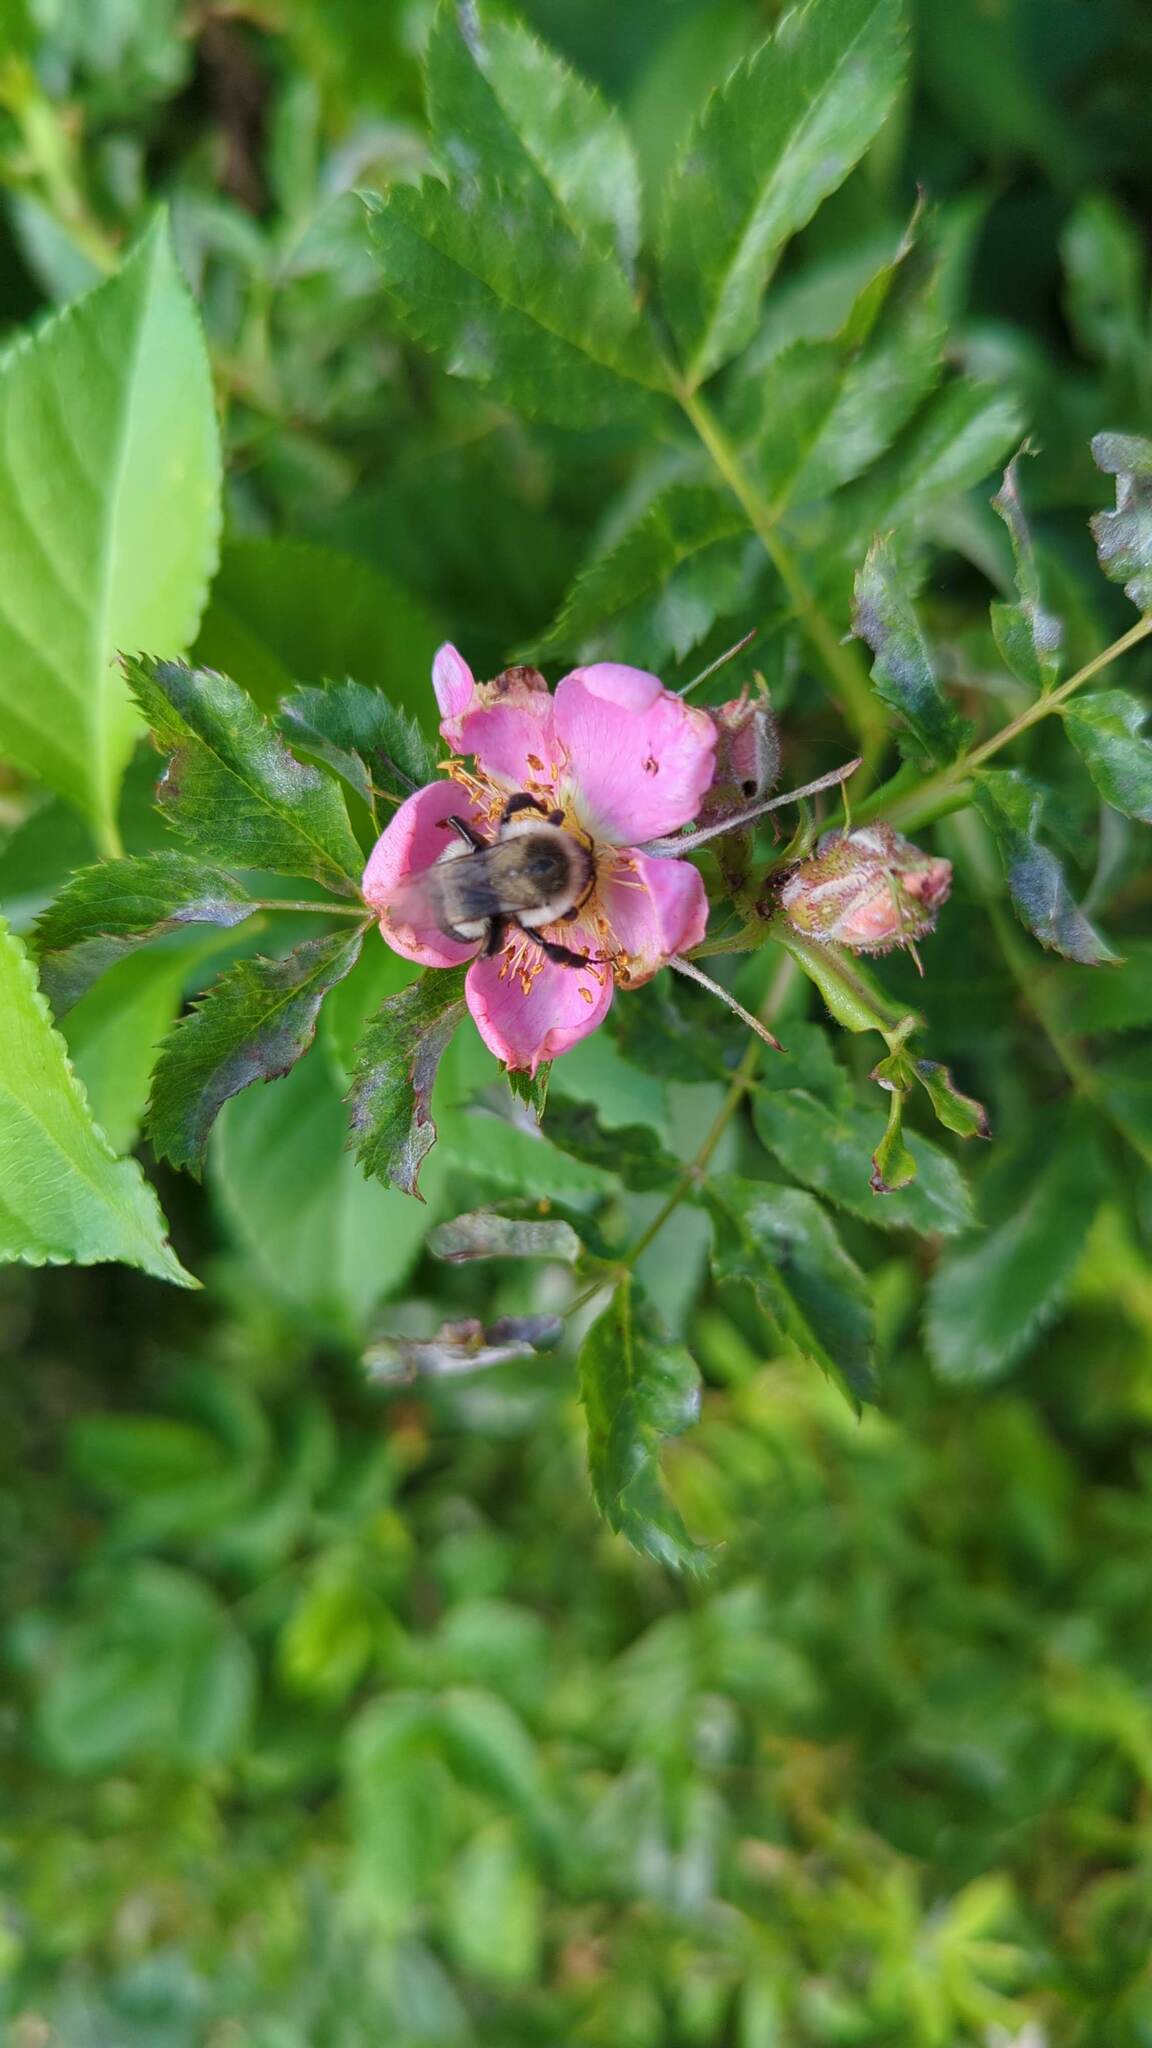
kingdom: Animalia
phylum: Arthropoda
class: Insecta
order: Hymenoptera
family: Apidae
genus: Bombus
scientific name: Bombus impatiens
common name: Common eastern bumble bee
